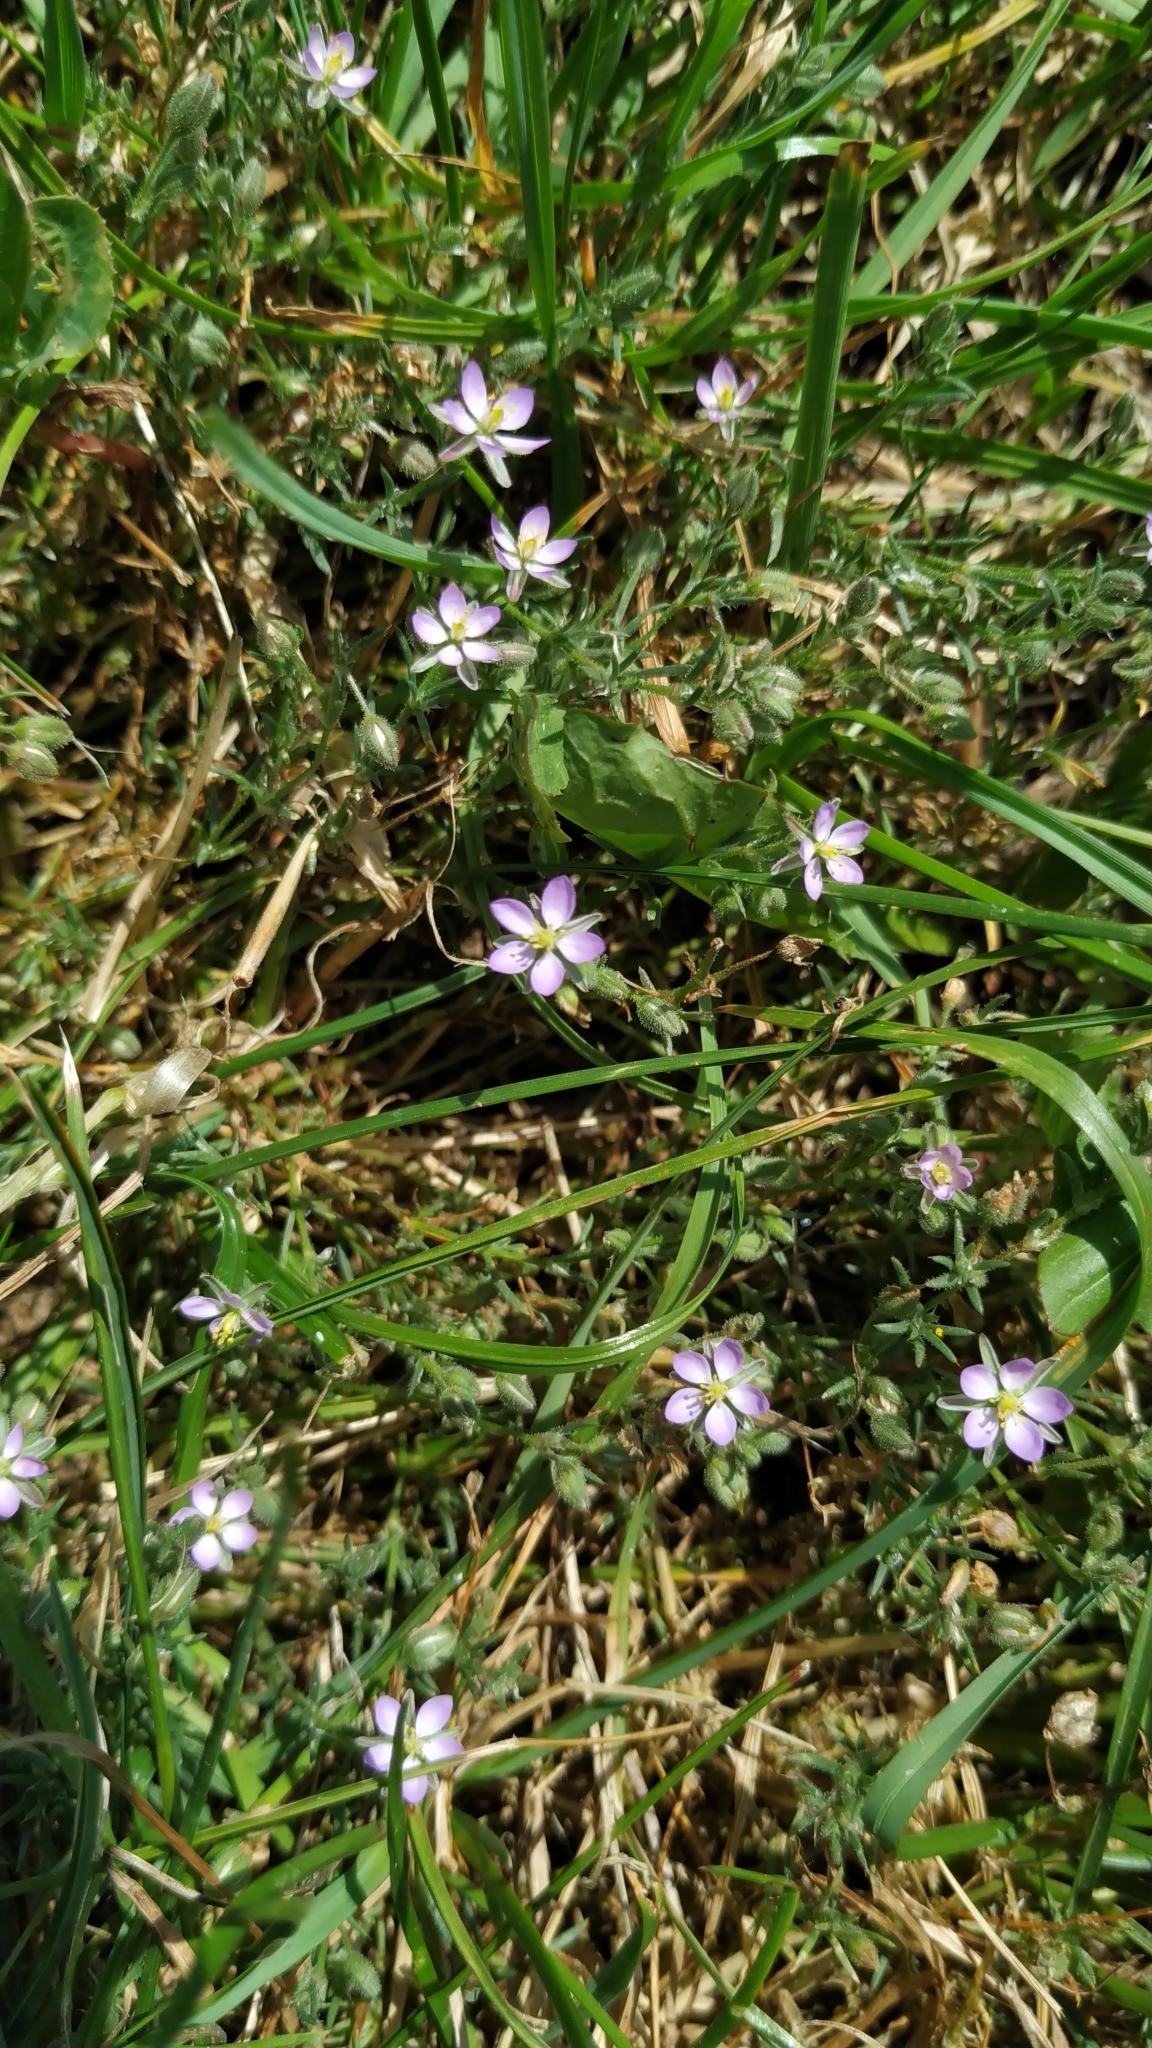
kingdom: Plantae
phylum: Tracheophyta
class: Magnoliopsida
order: Caryophyllales
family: Caryophyllaceae
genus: Spergularia
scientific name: Spergularia rubra
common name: Red sand-spurrey
